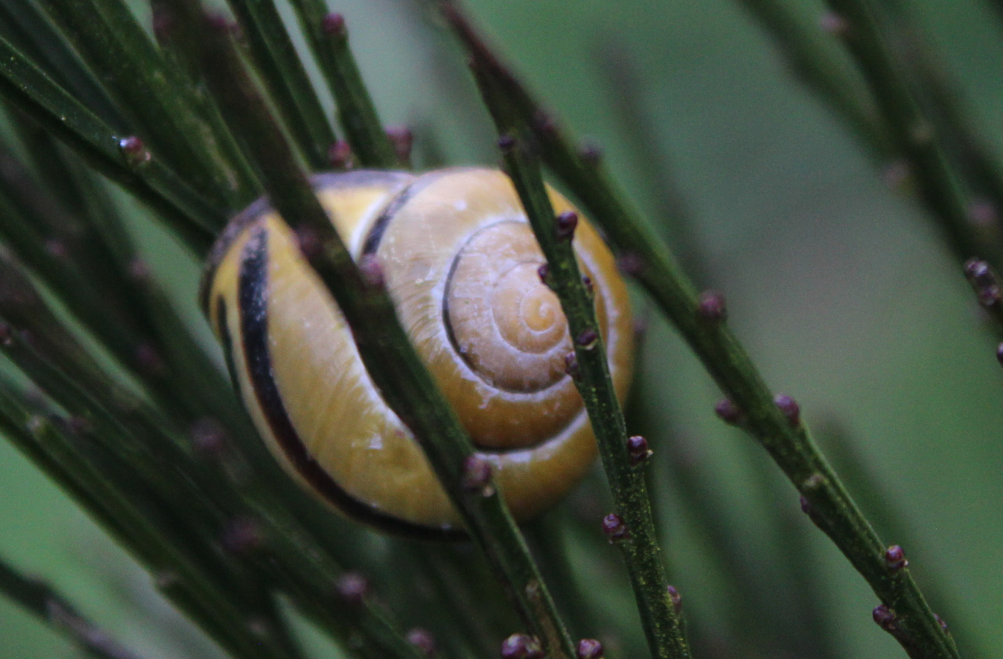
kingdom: Animalia
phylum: Mollusca
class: Gastropoda
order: Stylommatophora
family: Helicidae
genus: Cepaea
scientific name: Cepaea nemoralis
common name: Grovesnail
